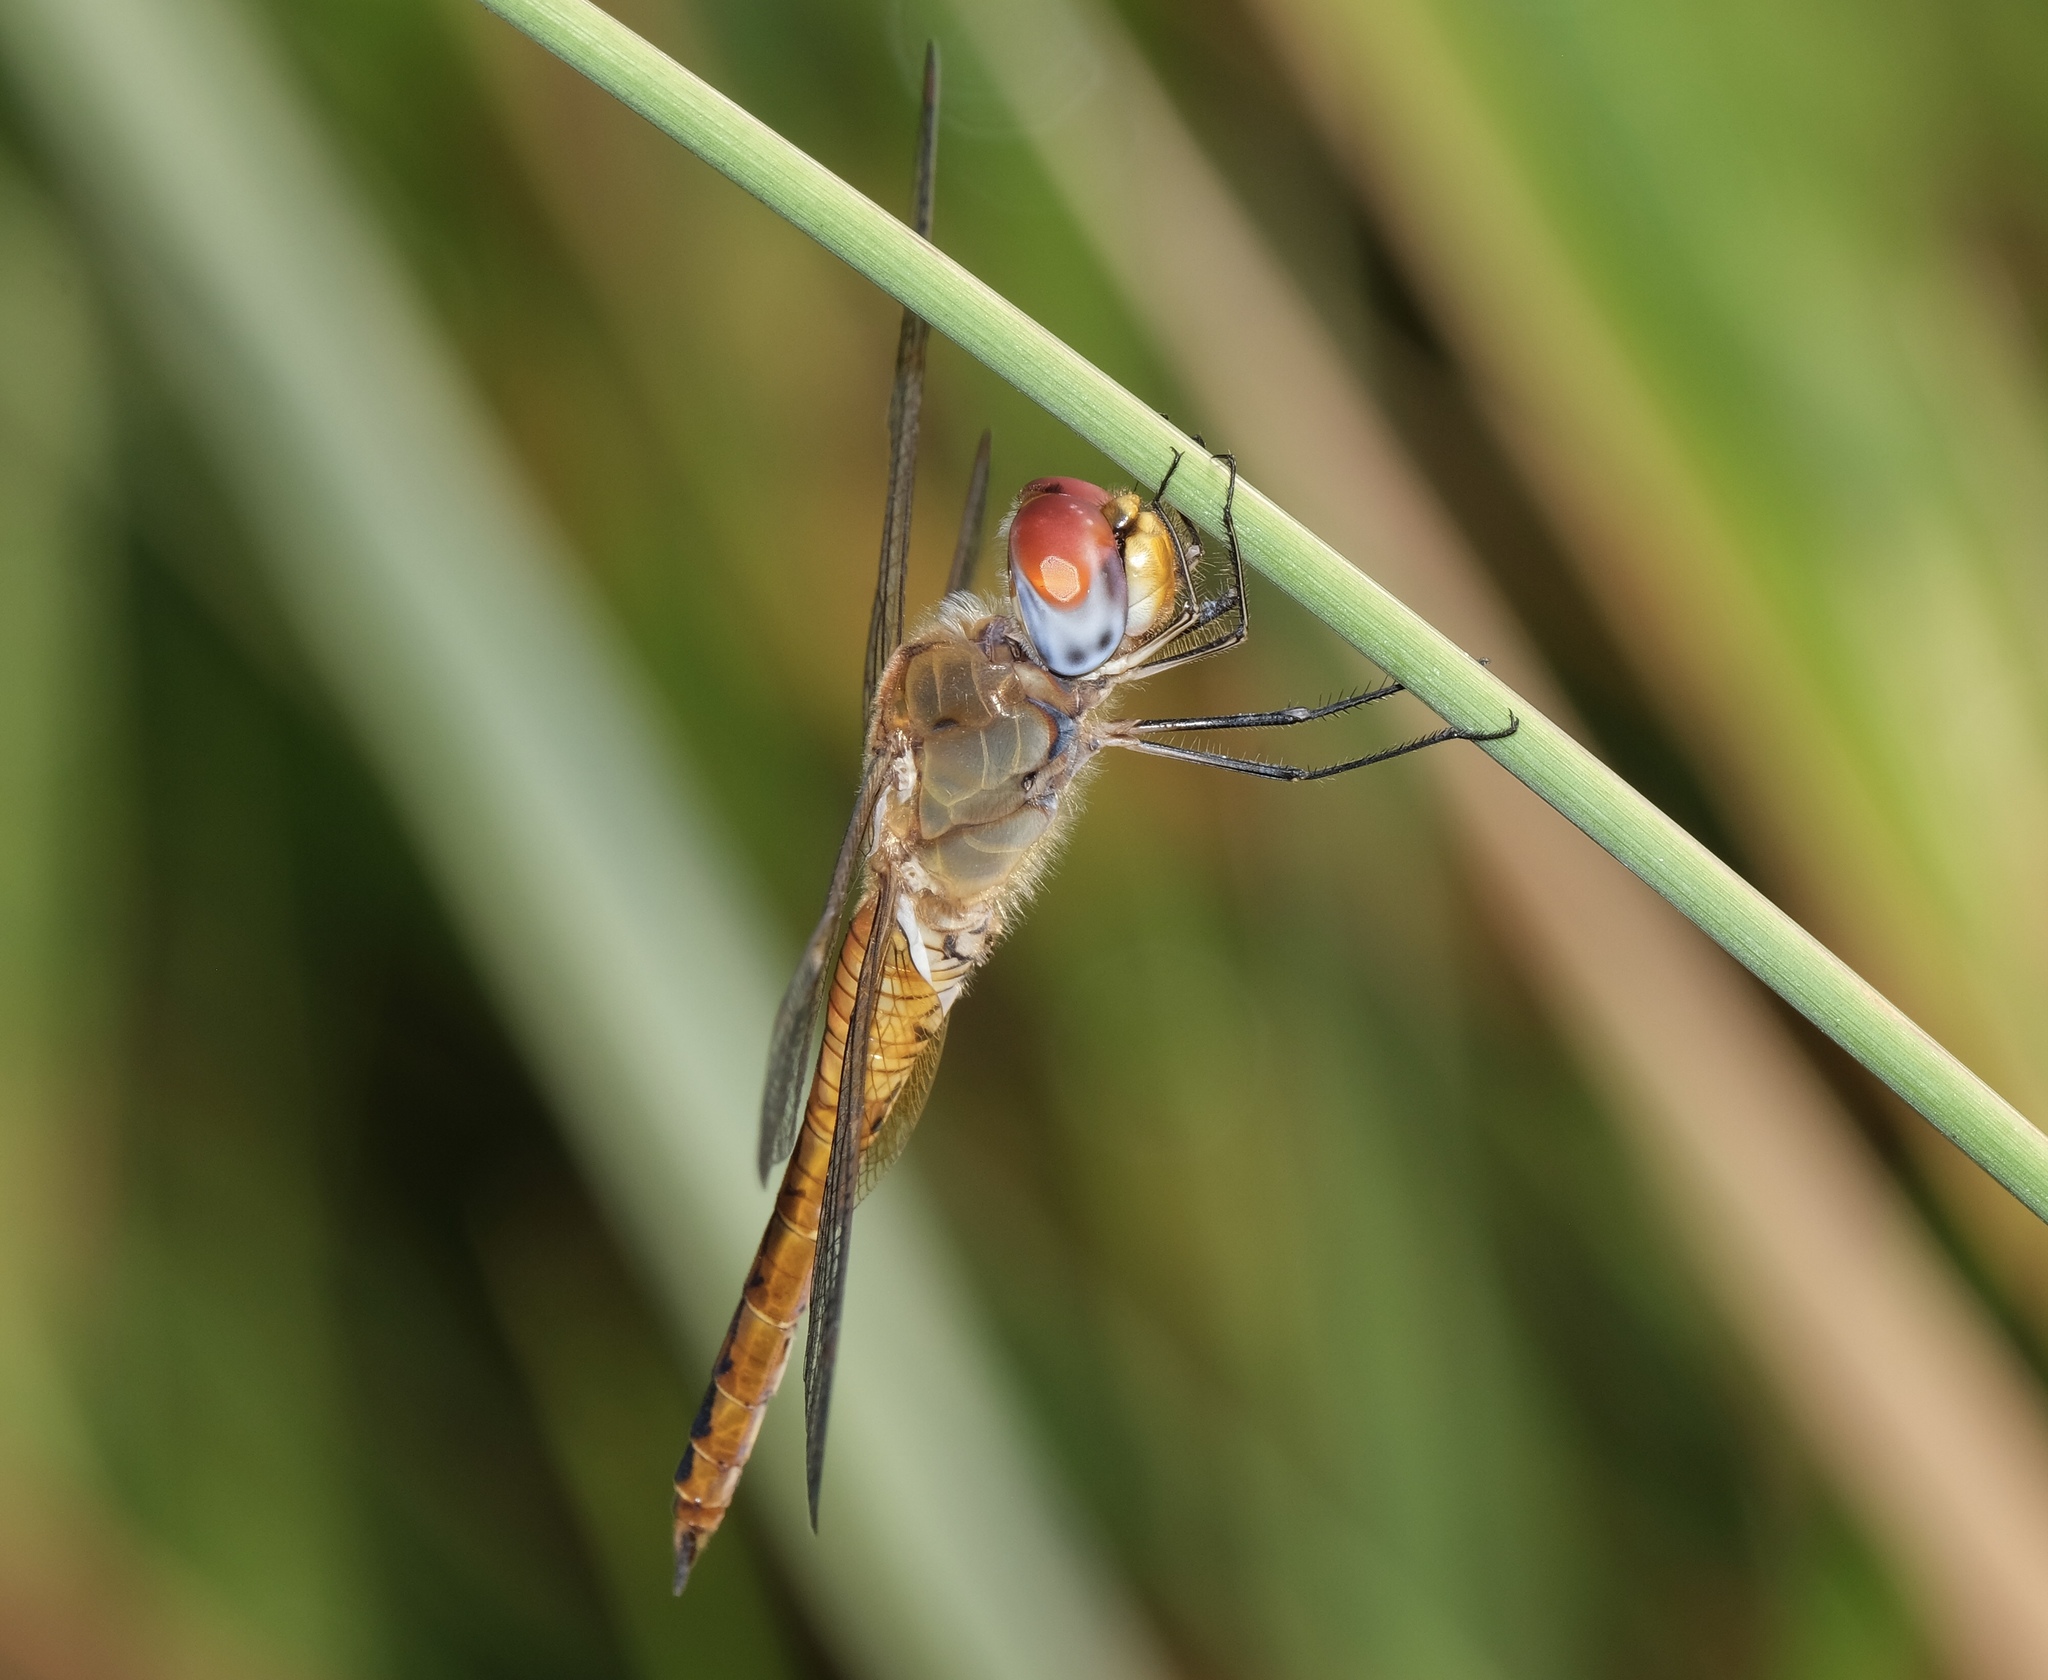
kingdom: Animalia
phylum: Arthropoda
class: Insecta
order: Odonata
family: Libellulidae
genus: Pantala
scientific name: Pantala flavescens
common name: Wandering glider
